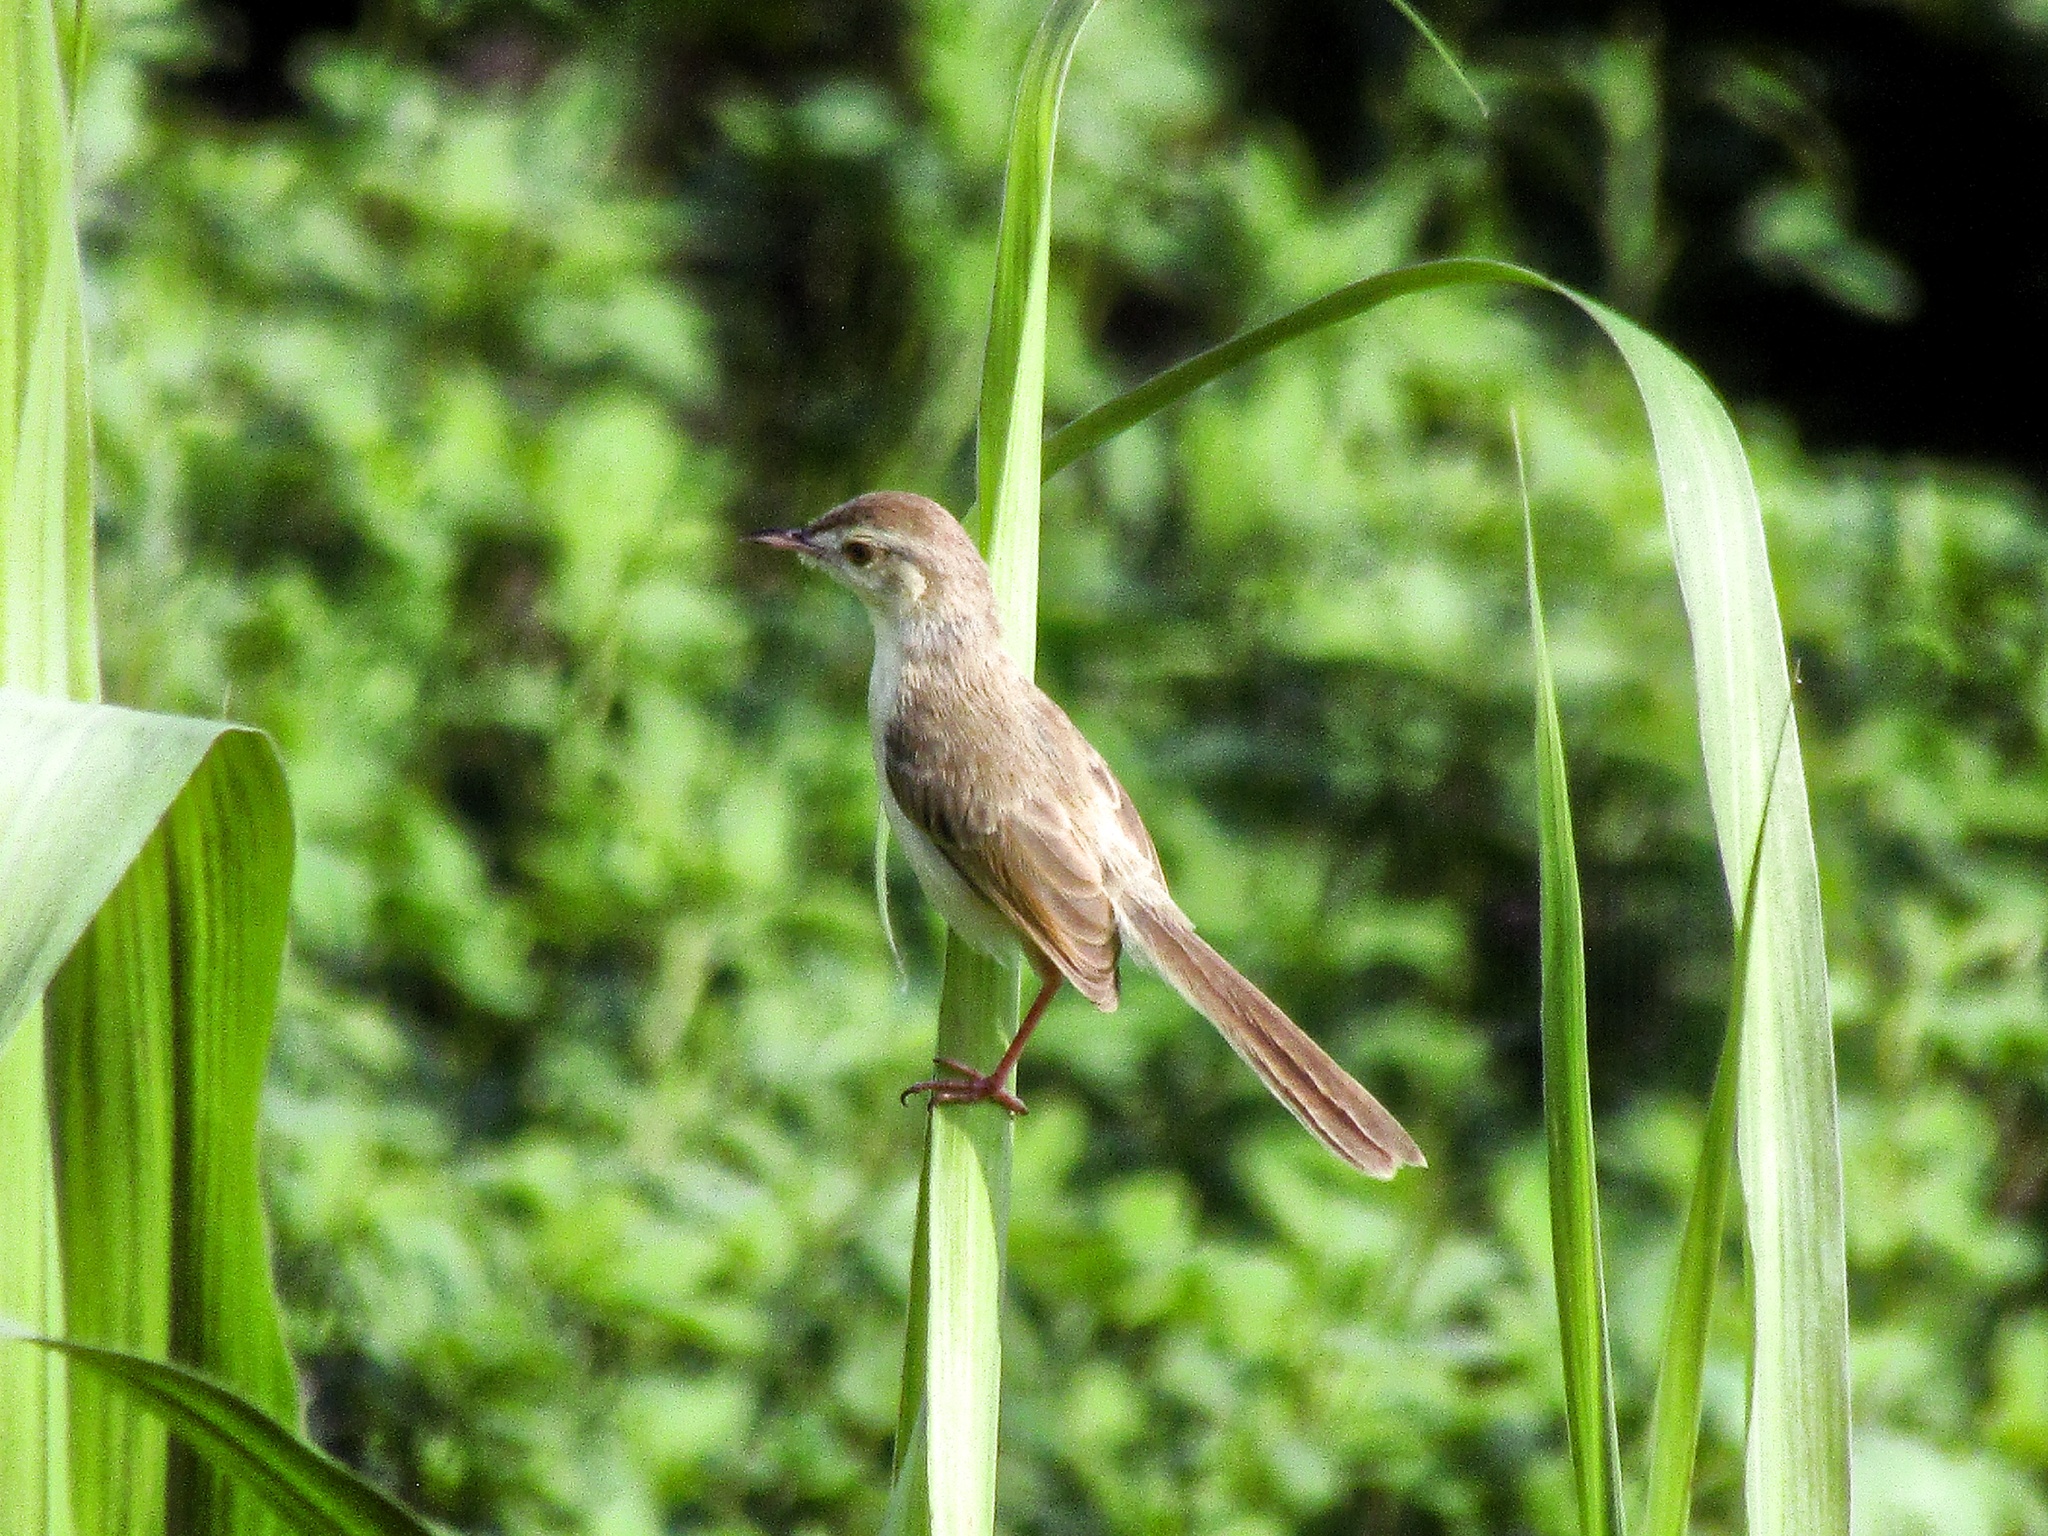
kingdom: Animalia
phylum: Chordata
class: Aves
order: Passeriformes
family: Cisticolidae
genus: Prinia
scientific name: Prinia inornata
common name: Plain prinia
